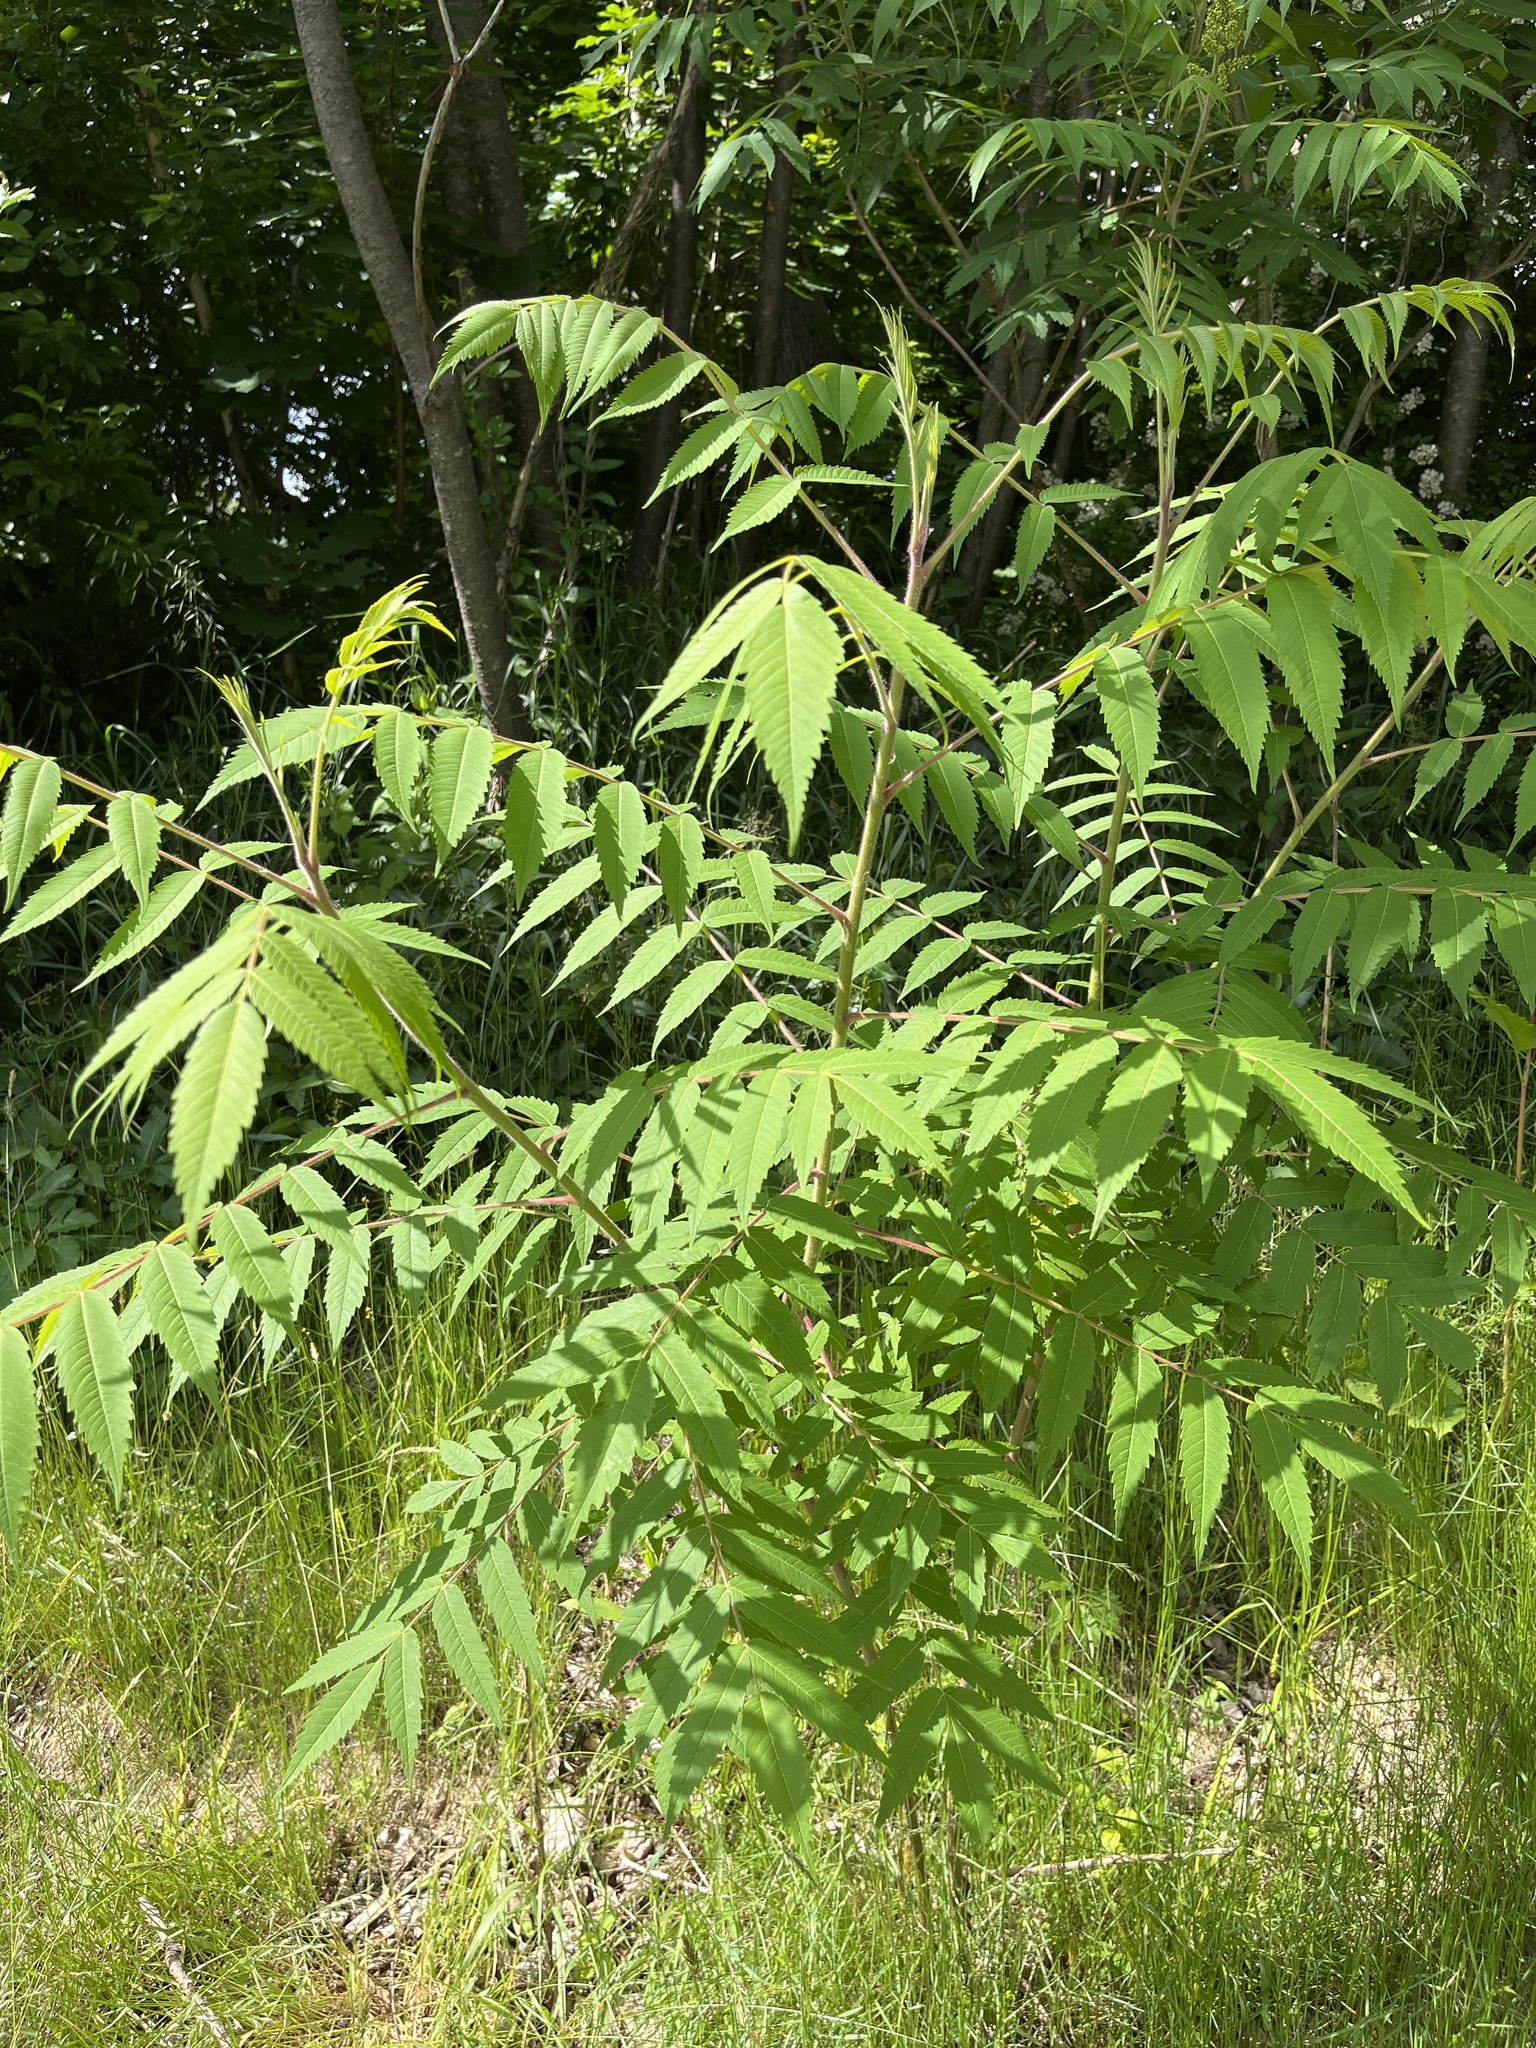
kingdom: Plantae
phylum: Tracheophyta
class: Magnoliopsida
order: Sapindales
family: Anacardiaceae
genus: Rhus
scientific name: Rhus typhina
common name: Staghorn sumac
